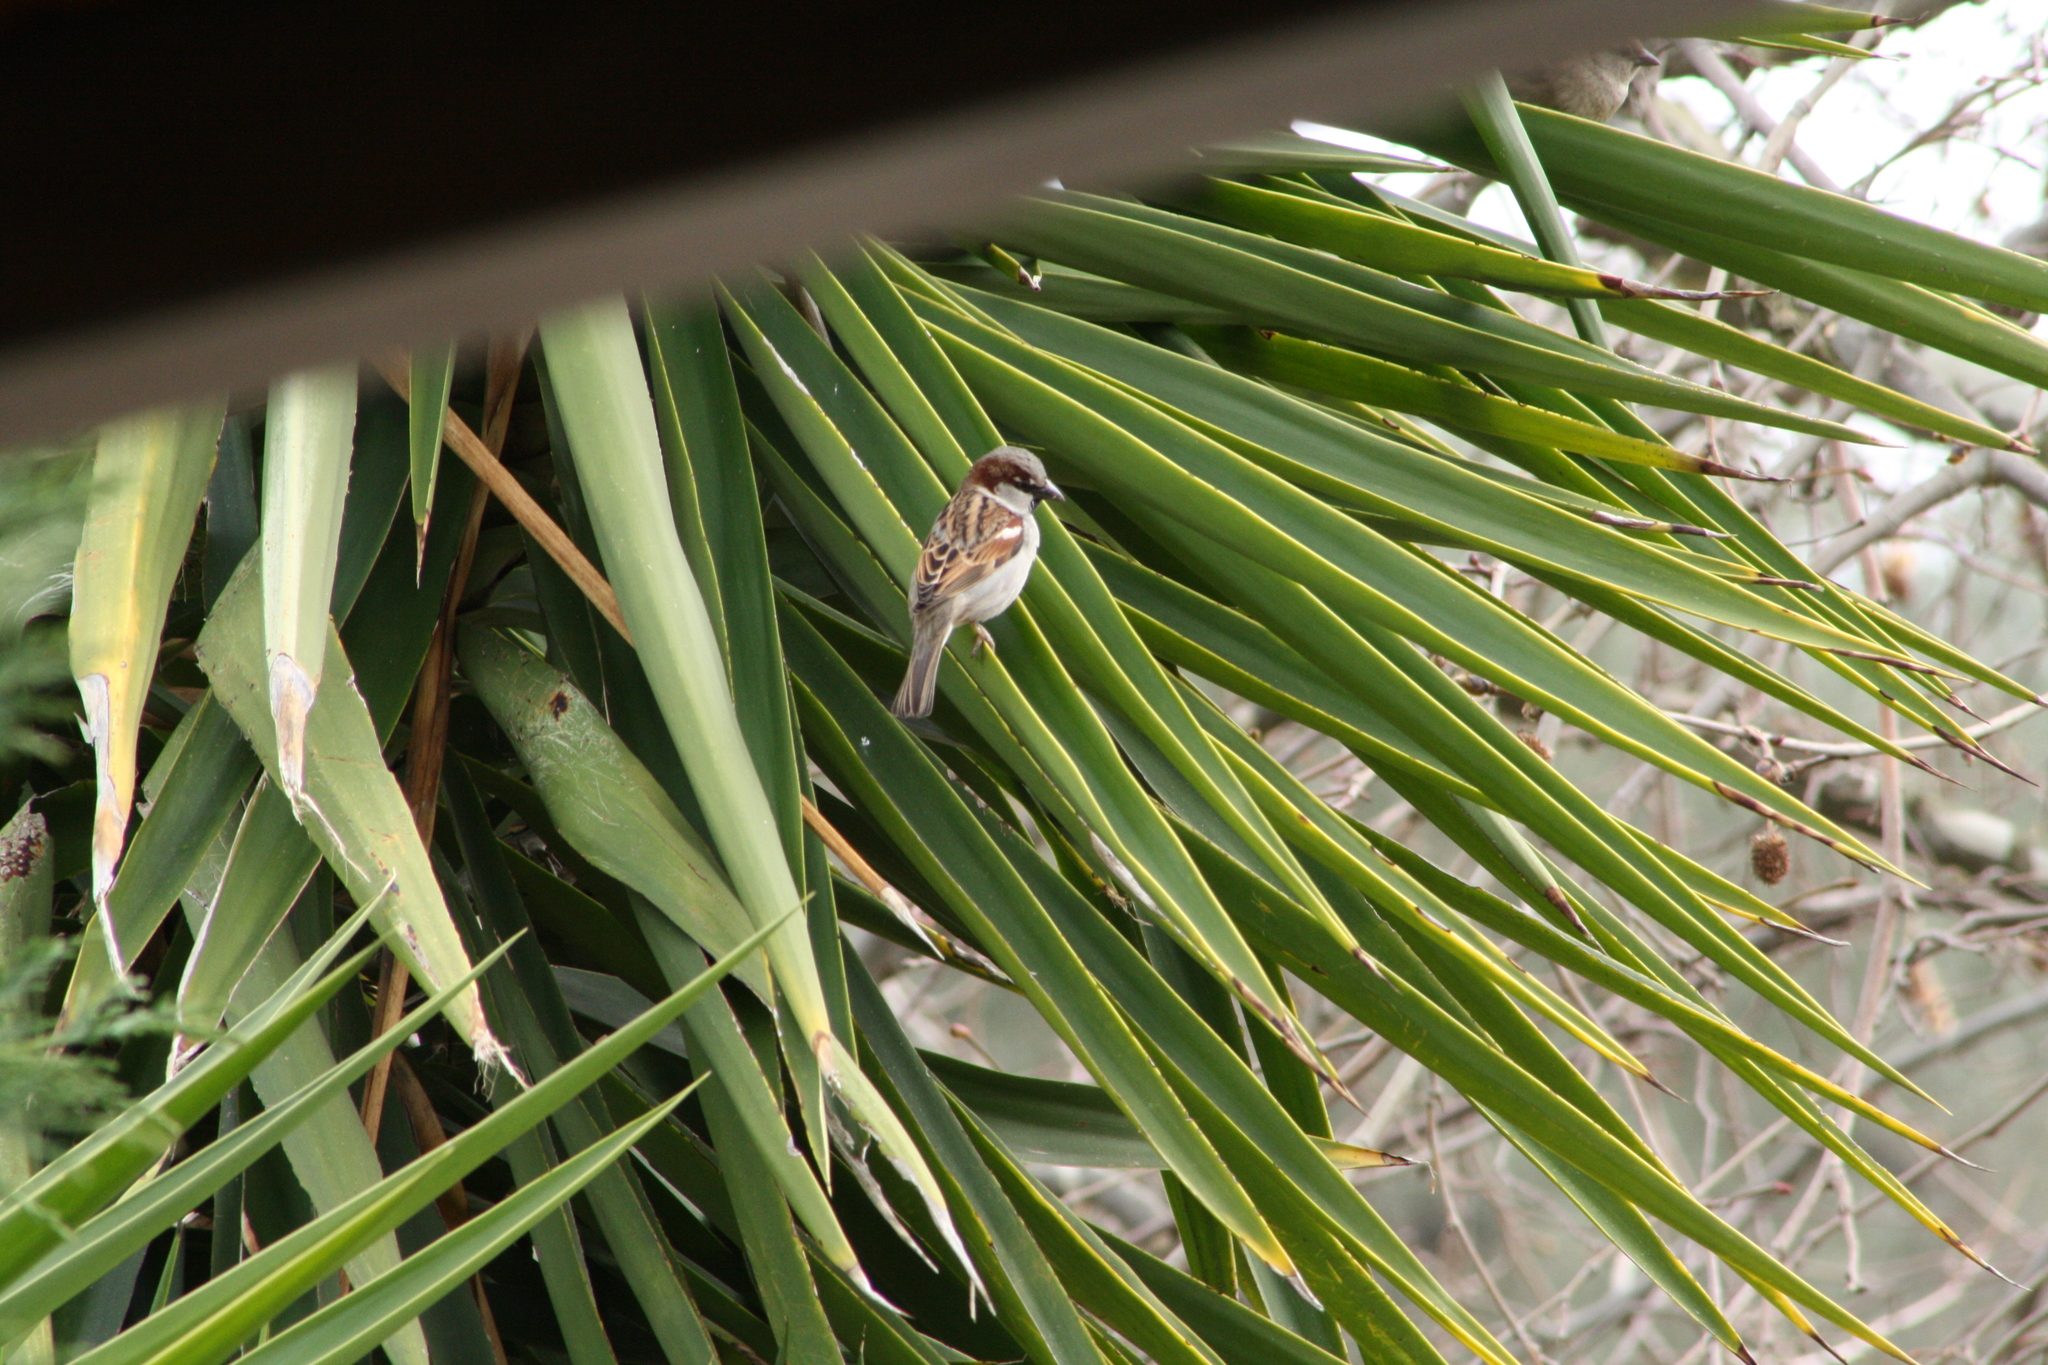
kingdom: Animalia
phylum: Chordata
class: Aves
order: Passeriformes
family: Passeridae
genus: Passer
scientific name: Passer domesticus
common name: House sparrow
